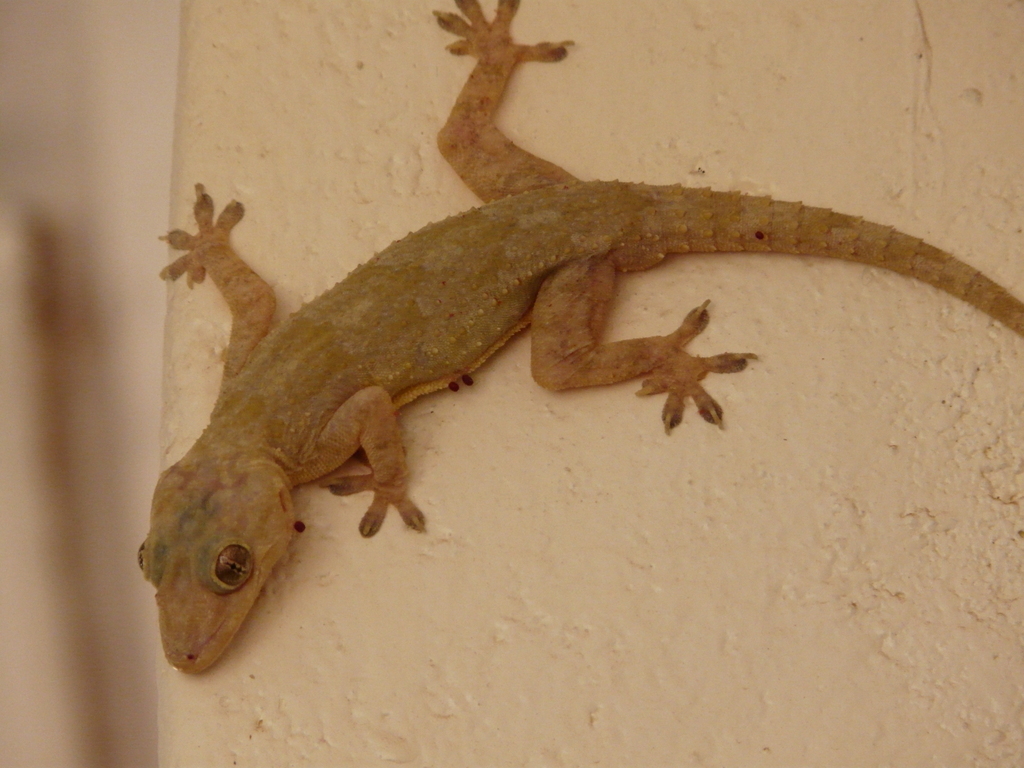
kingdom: Animalia
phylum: Chordata
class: Squamata
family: Gekkonidae
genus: Hemidactylus
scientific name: Hemidactylus platycephalus
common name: Baobab gecko
